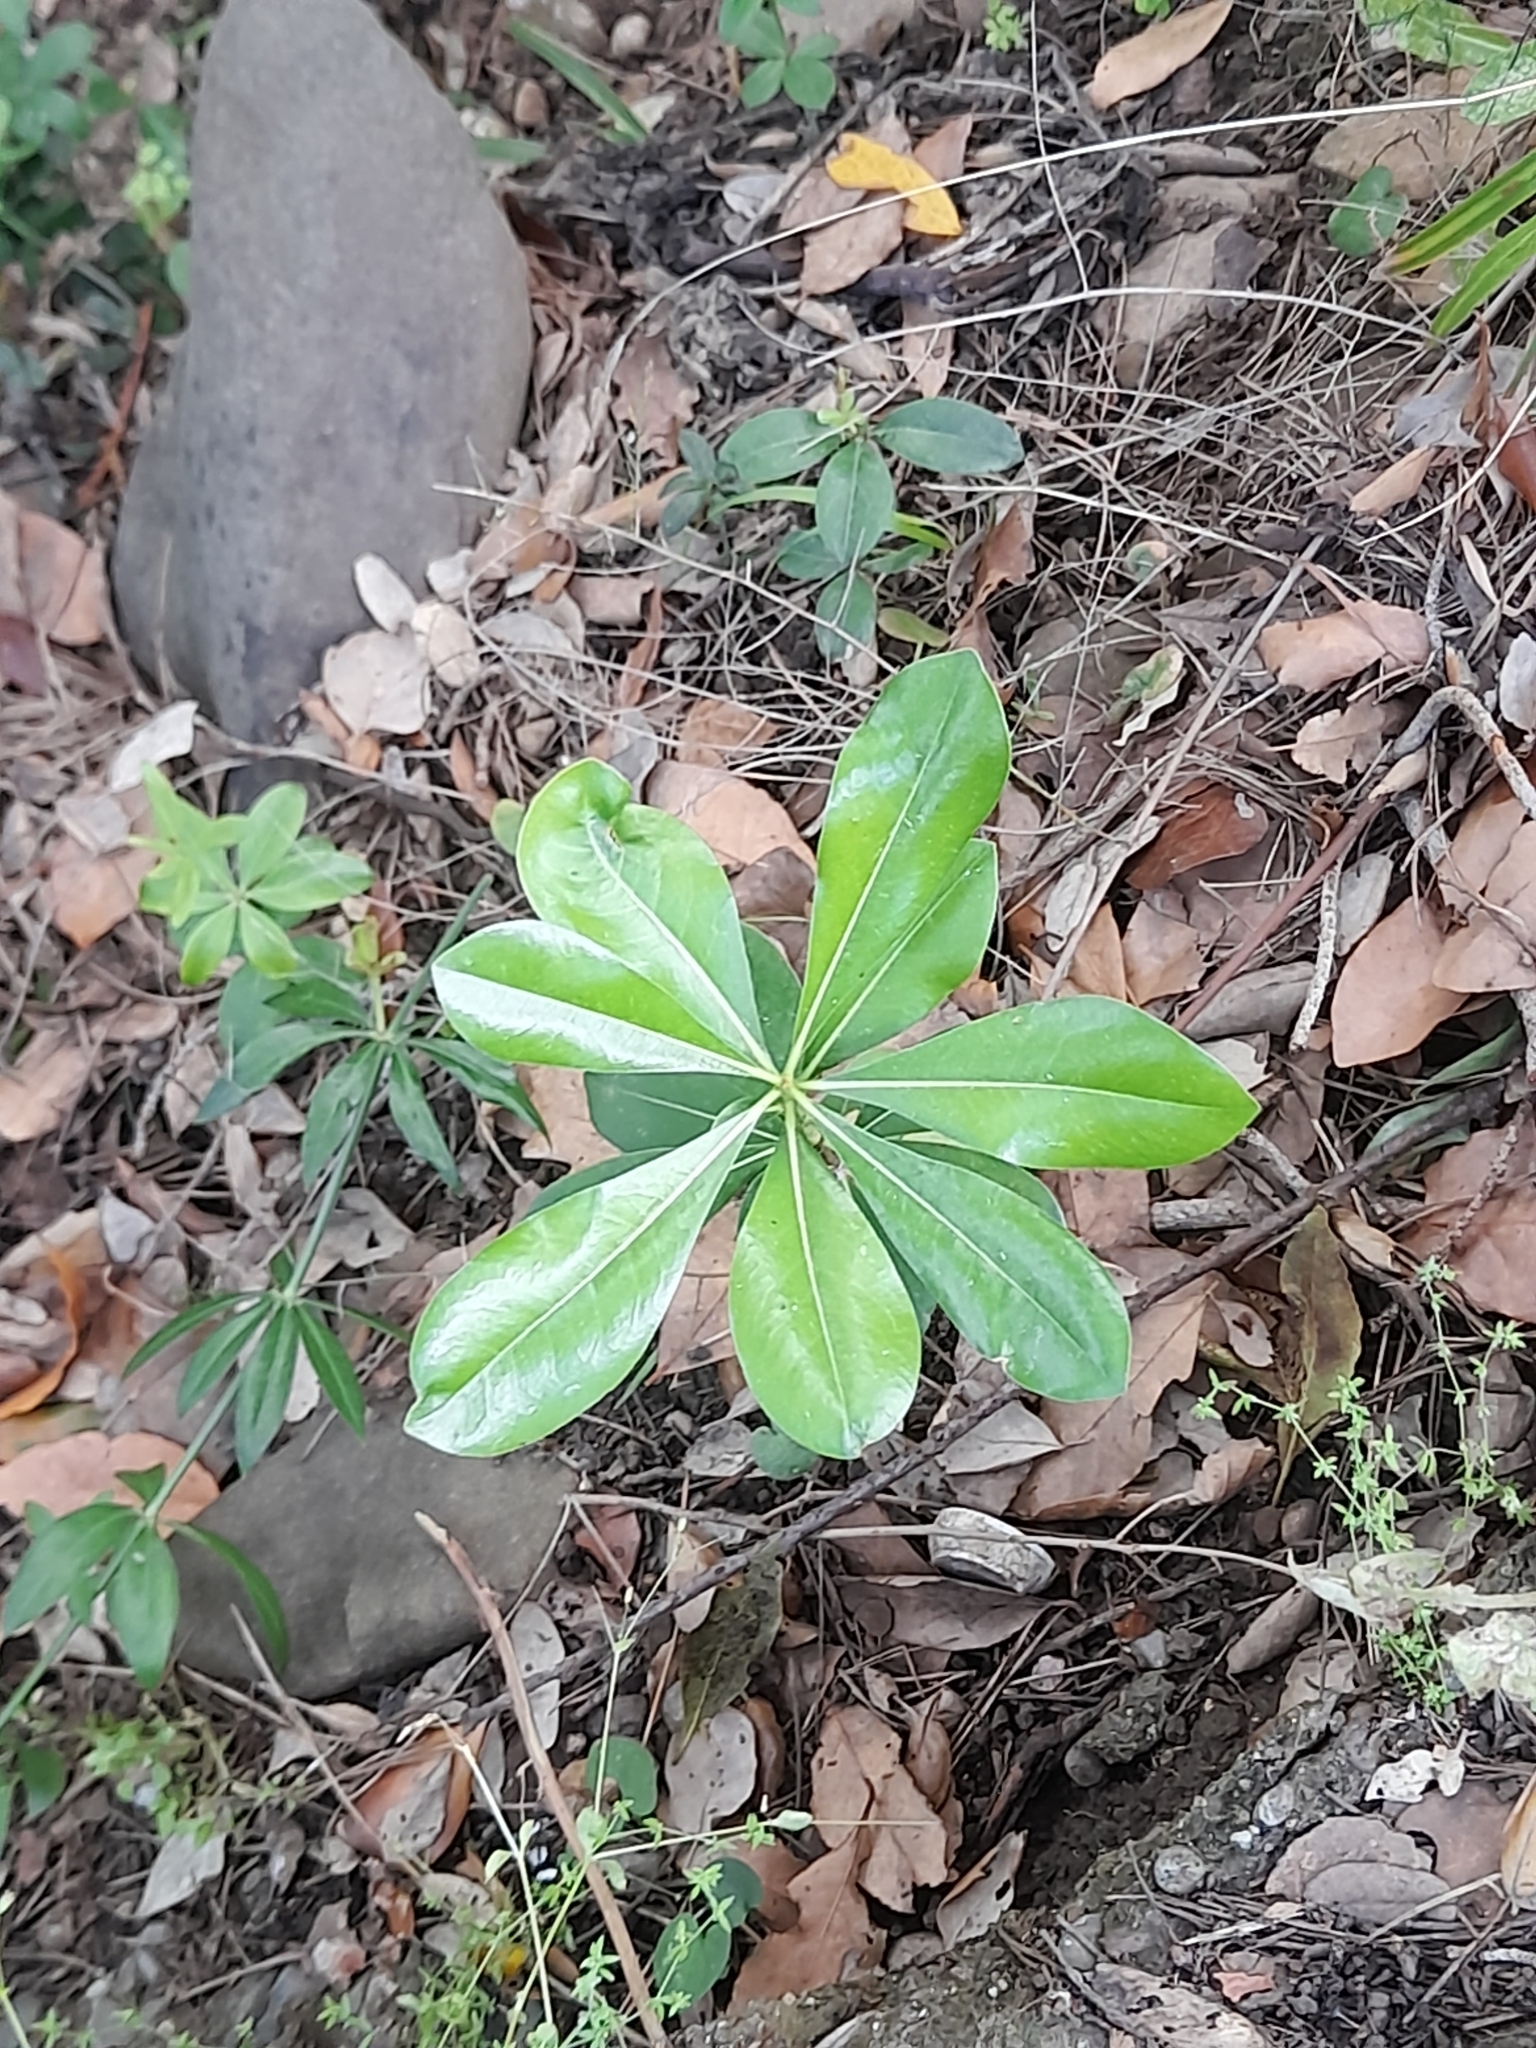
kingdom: Plantae
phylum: Tracheophyta
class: Magnoliopsida
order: Apiales
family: Pittosporaceae
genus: Pittosporum
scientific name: Pittosporum tobira
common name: Japanese cheesewood
